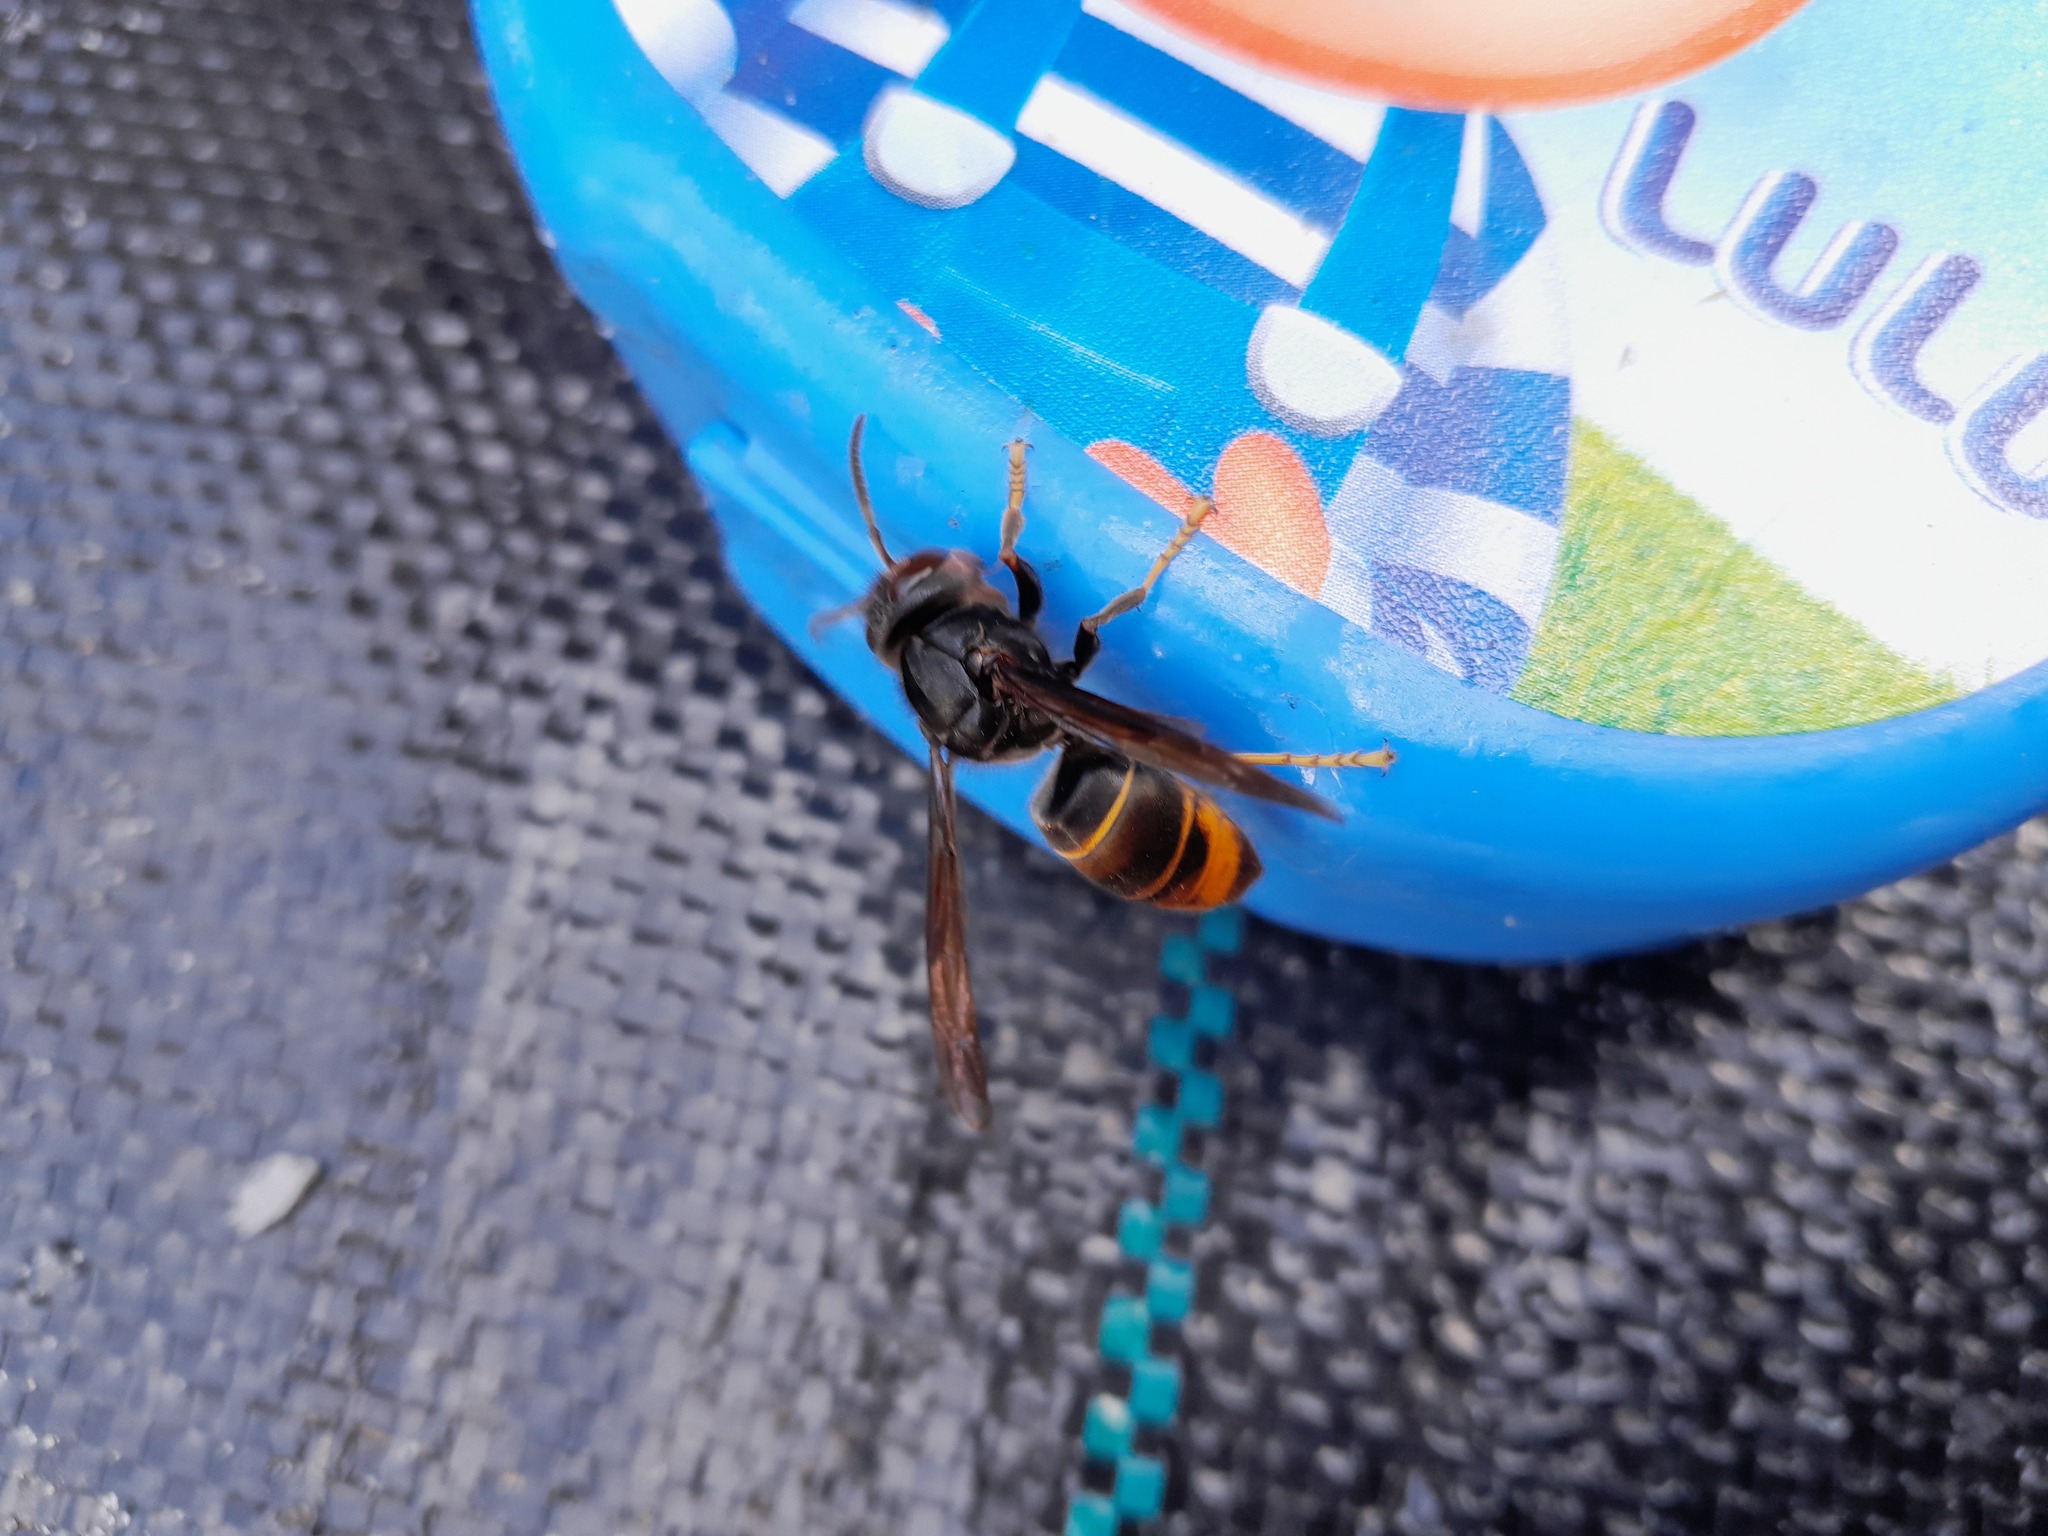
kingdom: Animalia
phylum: Arthropoda
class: Insecta
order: Hymenoptera
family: Vespidae
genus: Vespa
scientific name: Vespa velutina
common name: Asian hornet
